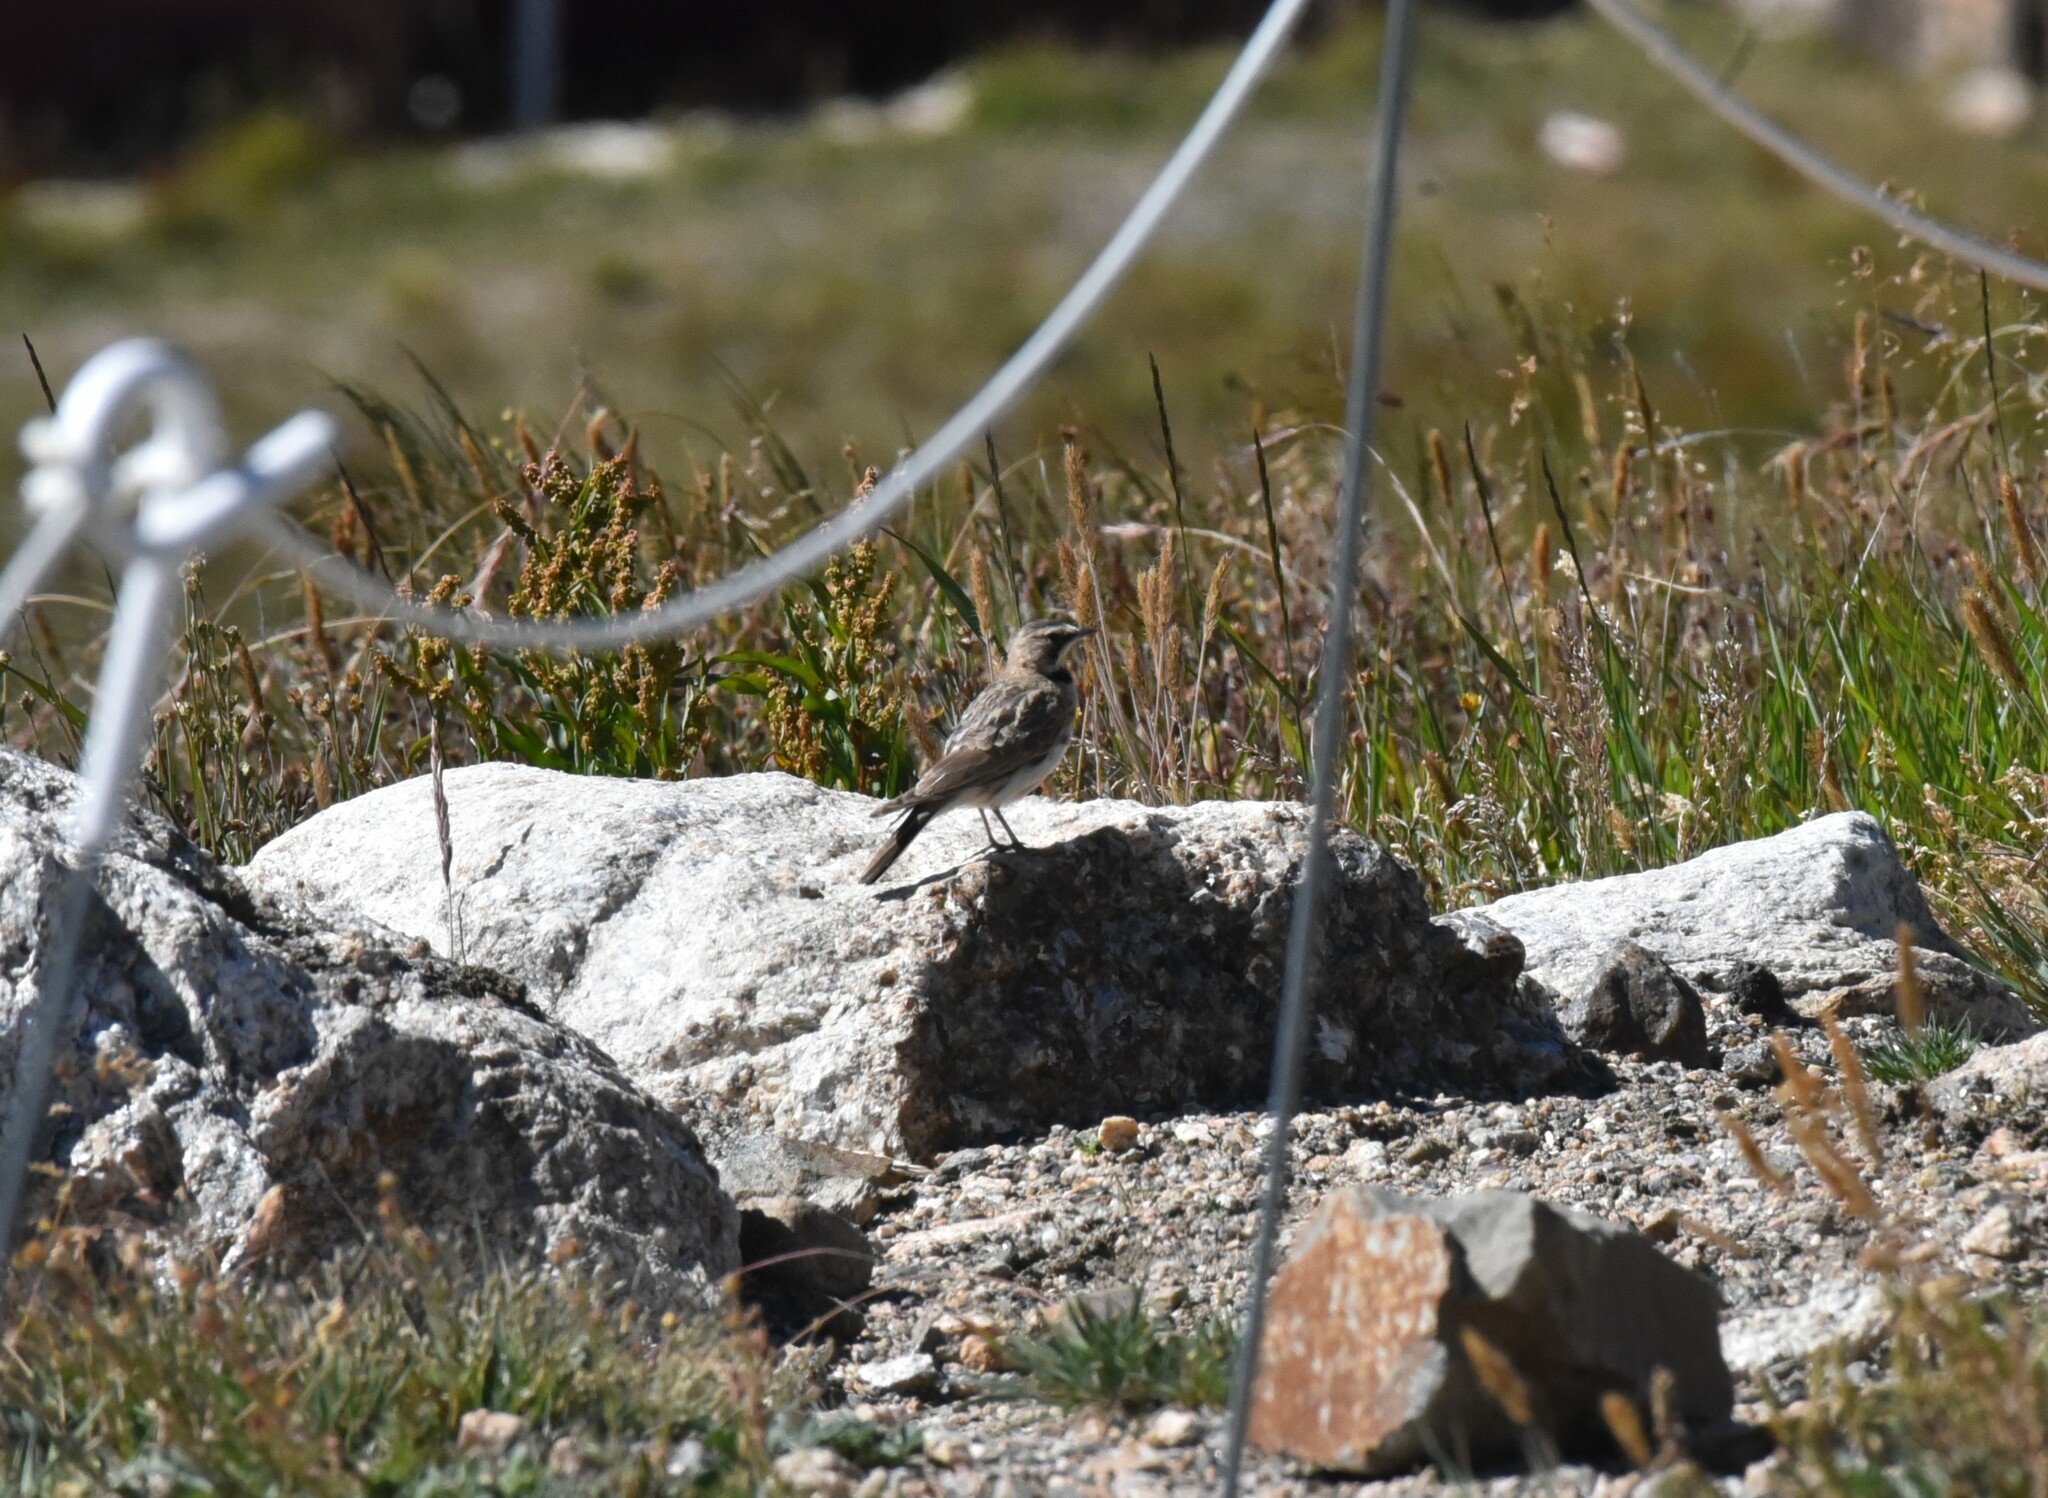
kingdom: Animalia
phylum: Chordata
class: Aves
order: Passeriformes
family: Alaudidae
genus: Eremophila
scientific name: Eremophila alpestris
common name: Horned lark
